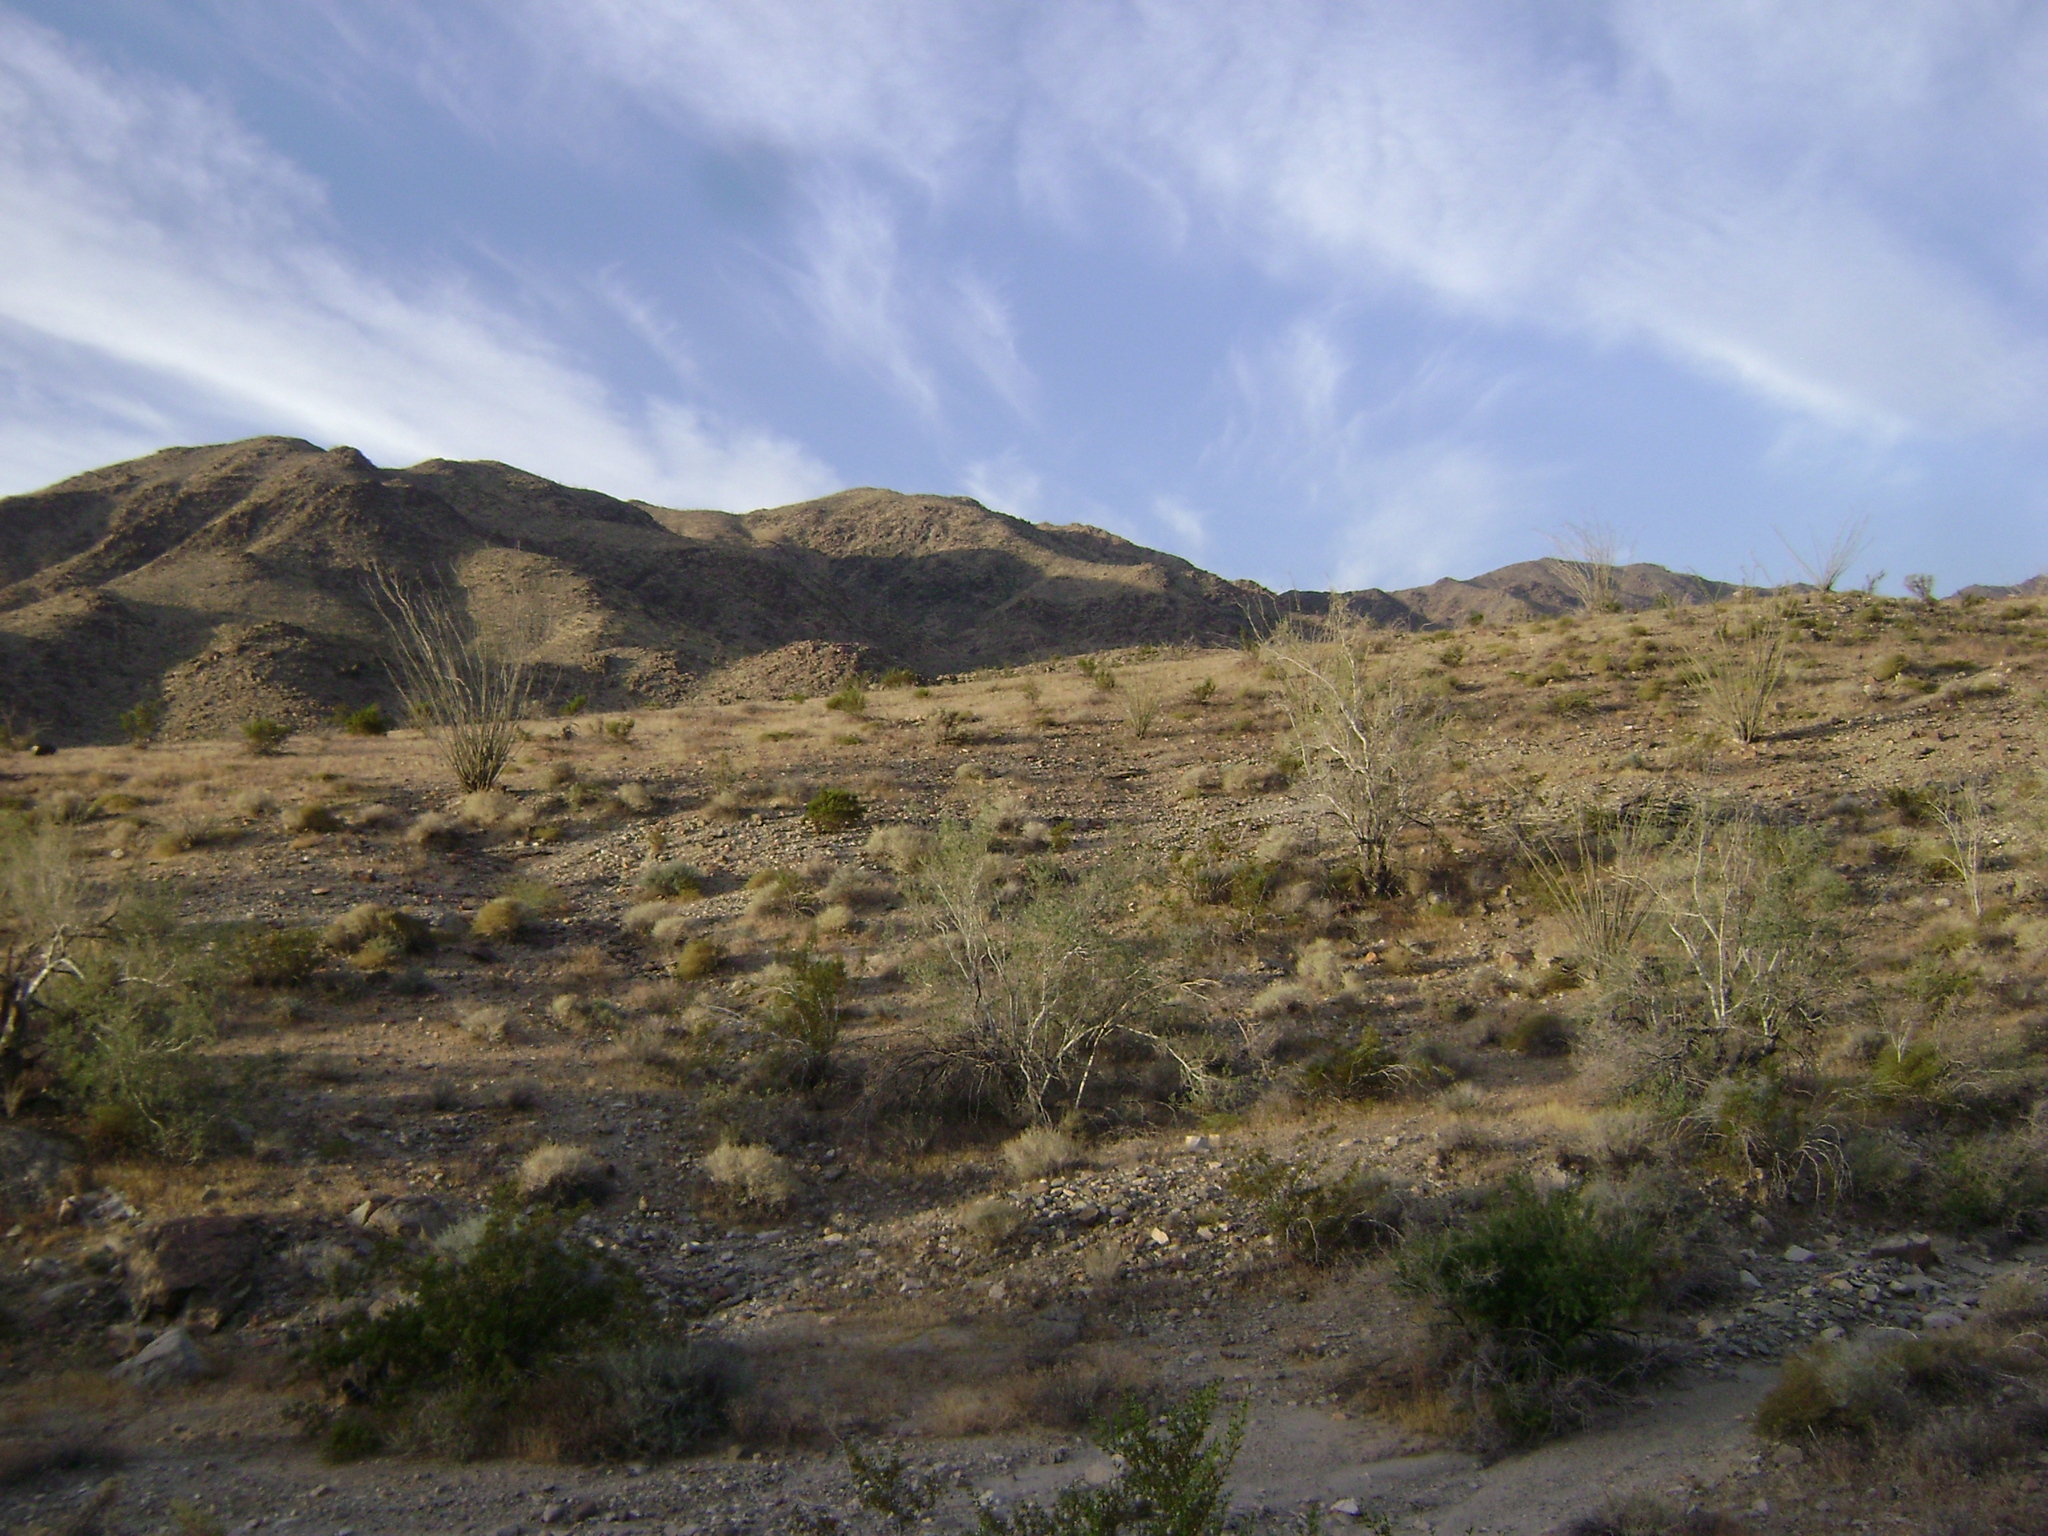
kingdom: Plantae
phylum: Tracheophyta
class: Magnoliopsida
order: Ericales
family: Fouquieriaceae
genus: Fouquieria
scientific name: Fouquieria splendens
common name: Vine-cactus
